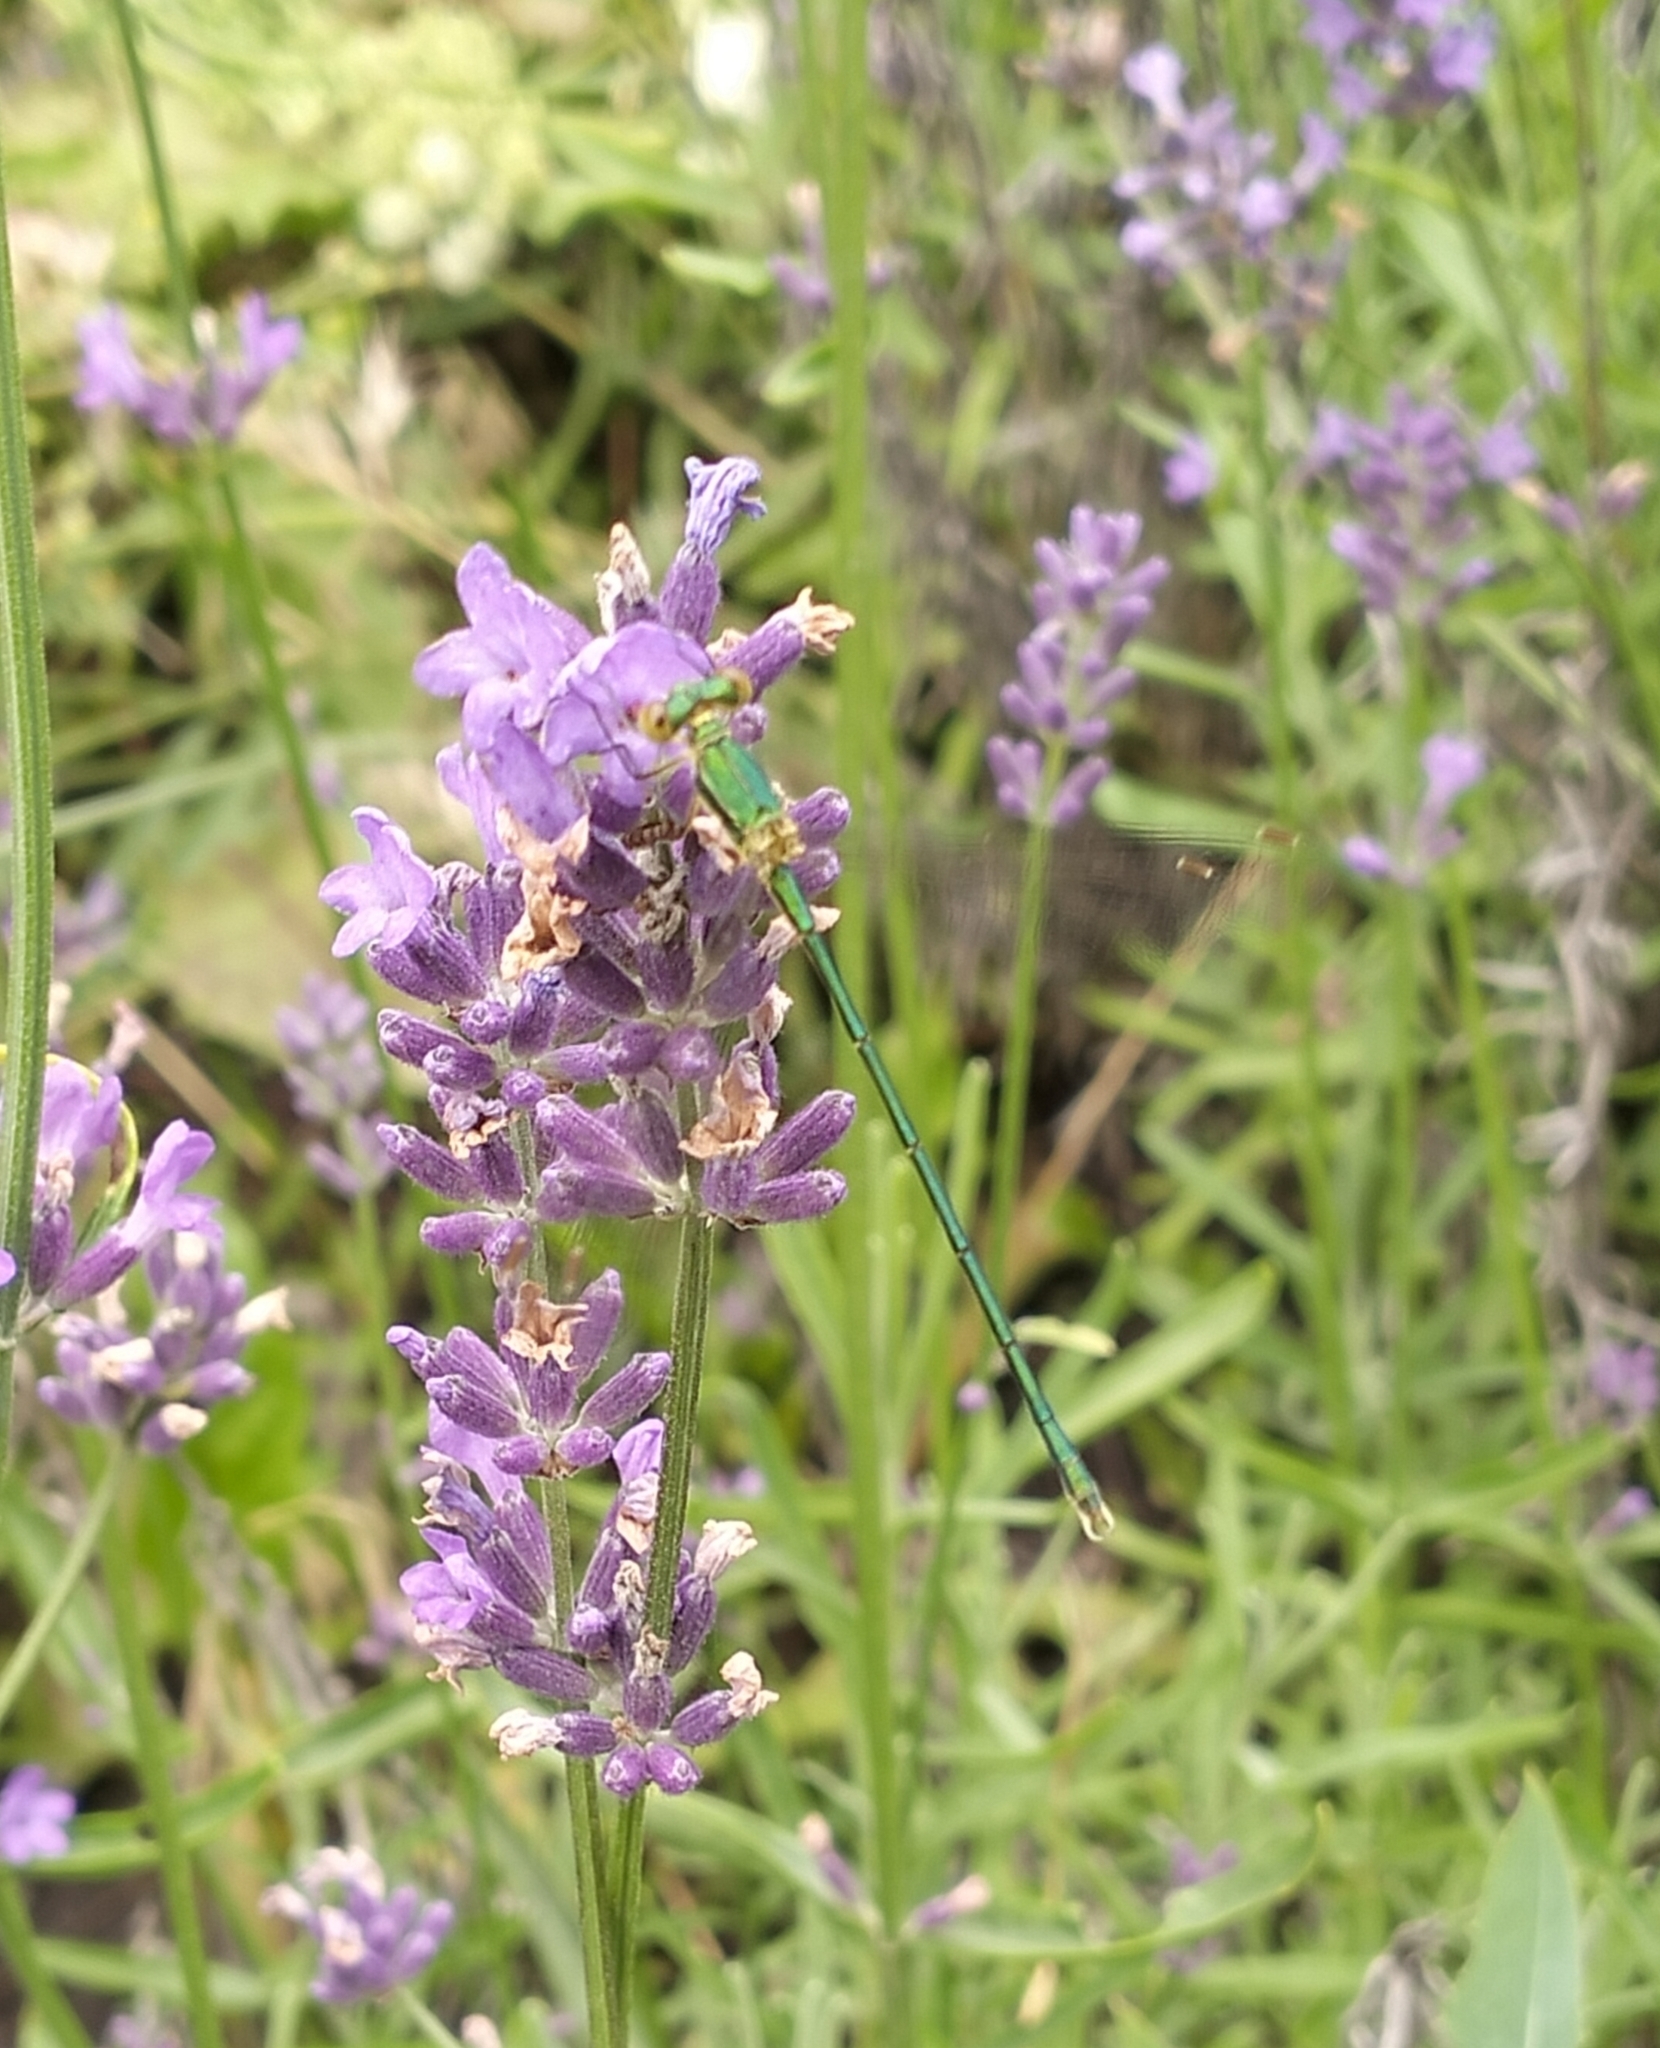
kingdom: Animalia
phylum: Arthropoda
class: Insecta
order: Odonata
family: Lestidae
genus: Lestes
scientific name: Lestes virens
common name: Small emerald spreadwing
